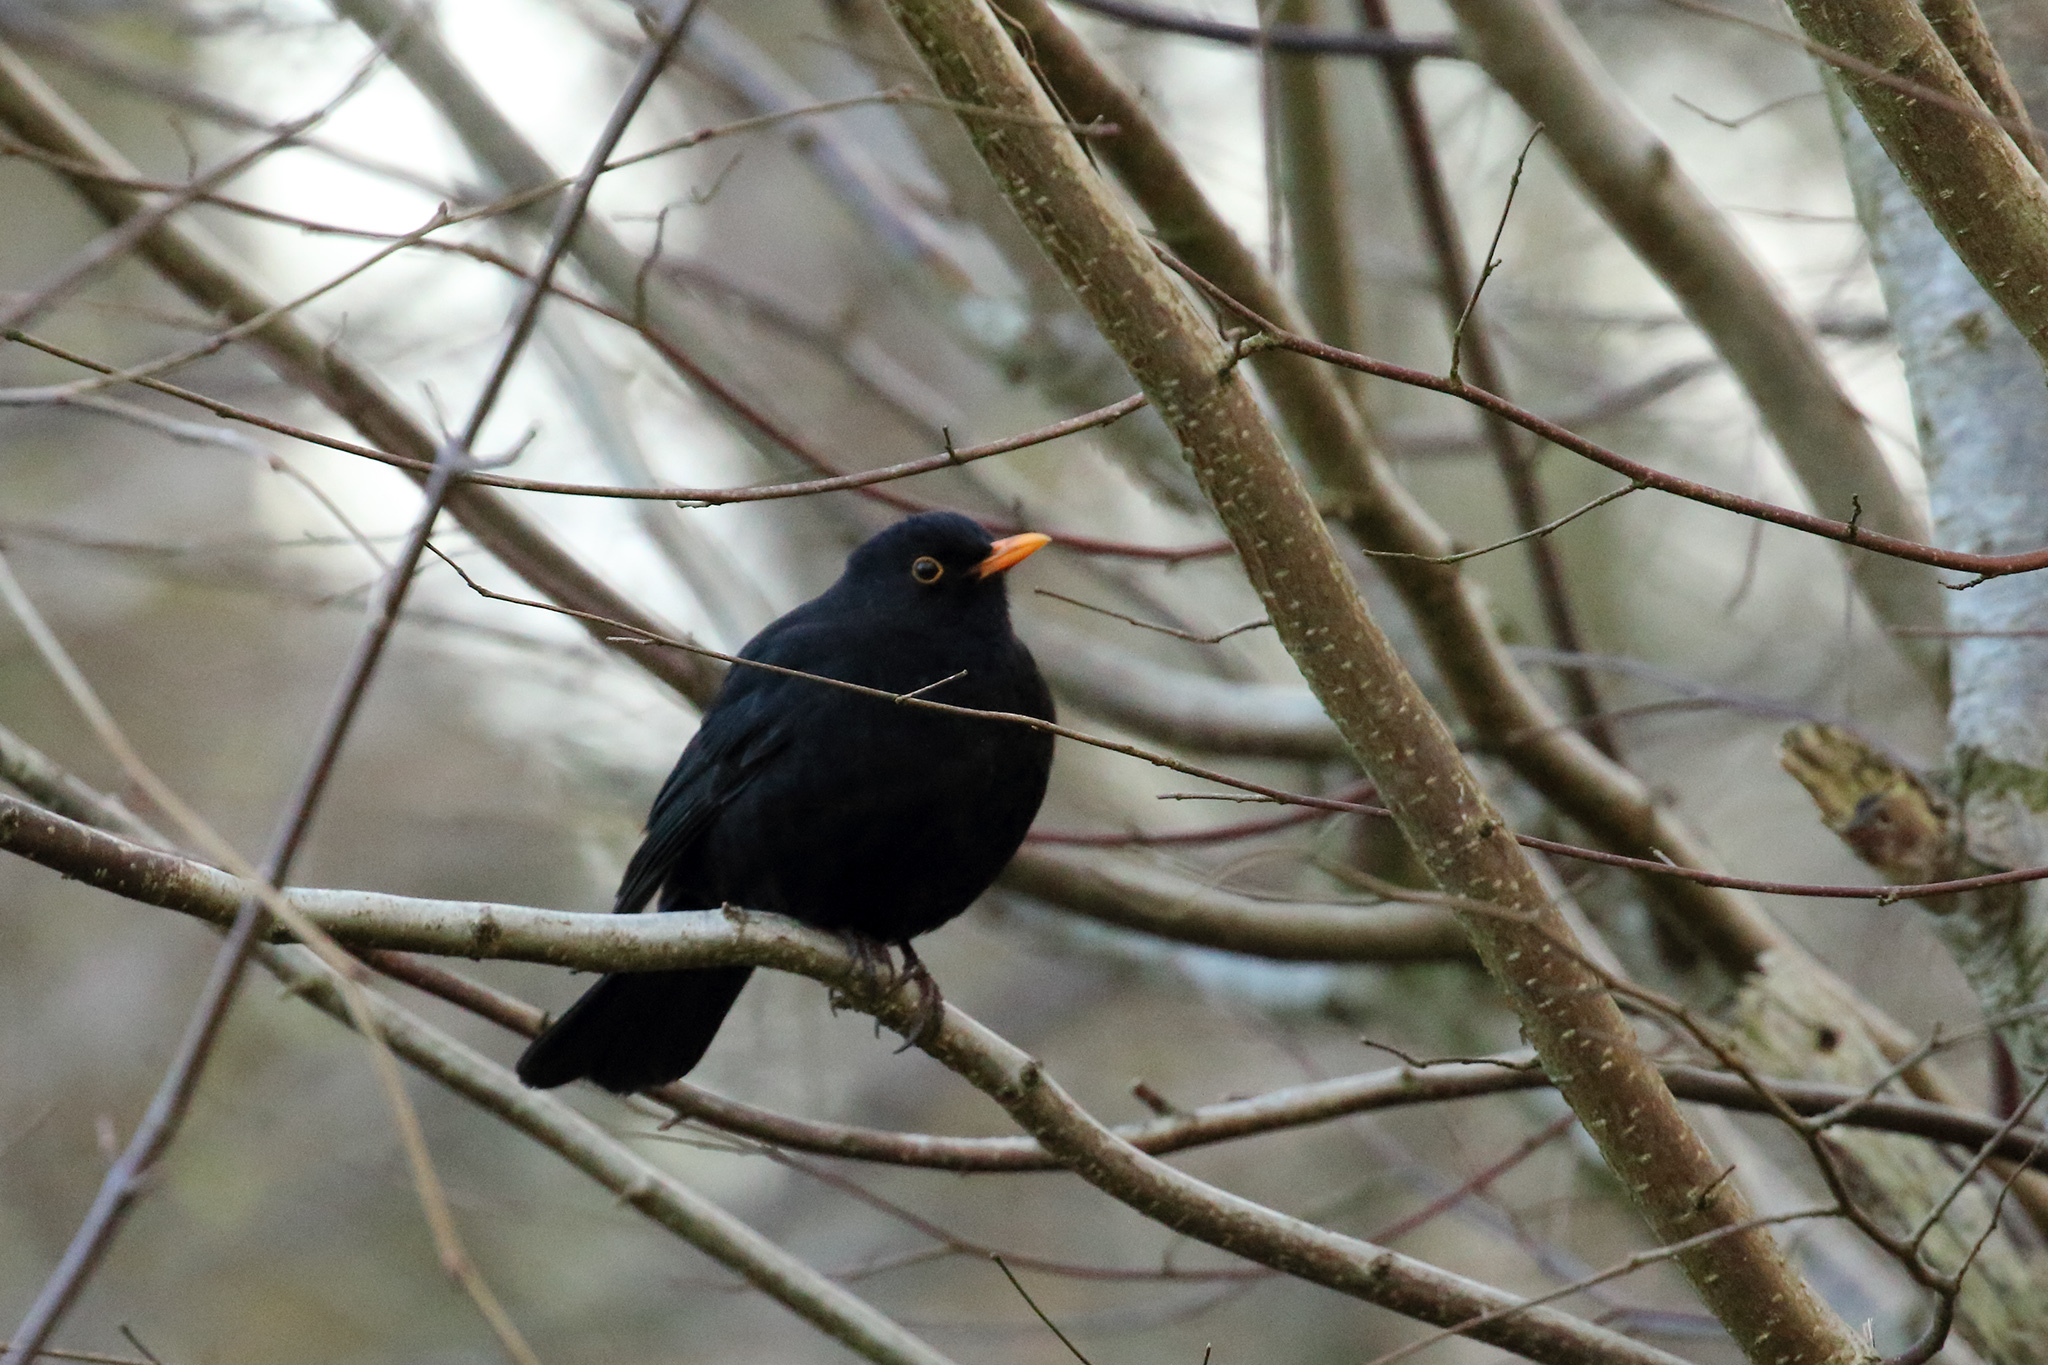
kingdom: Animalia
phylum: Chordata
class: Aves
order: Passeriformes
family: Turdidae
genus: Turdus
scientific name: Turdus merula
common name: Common blackbird
